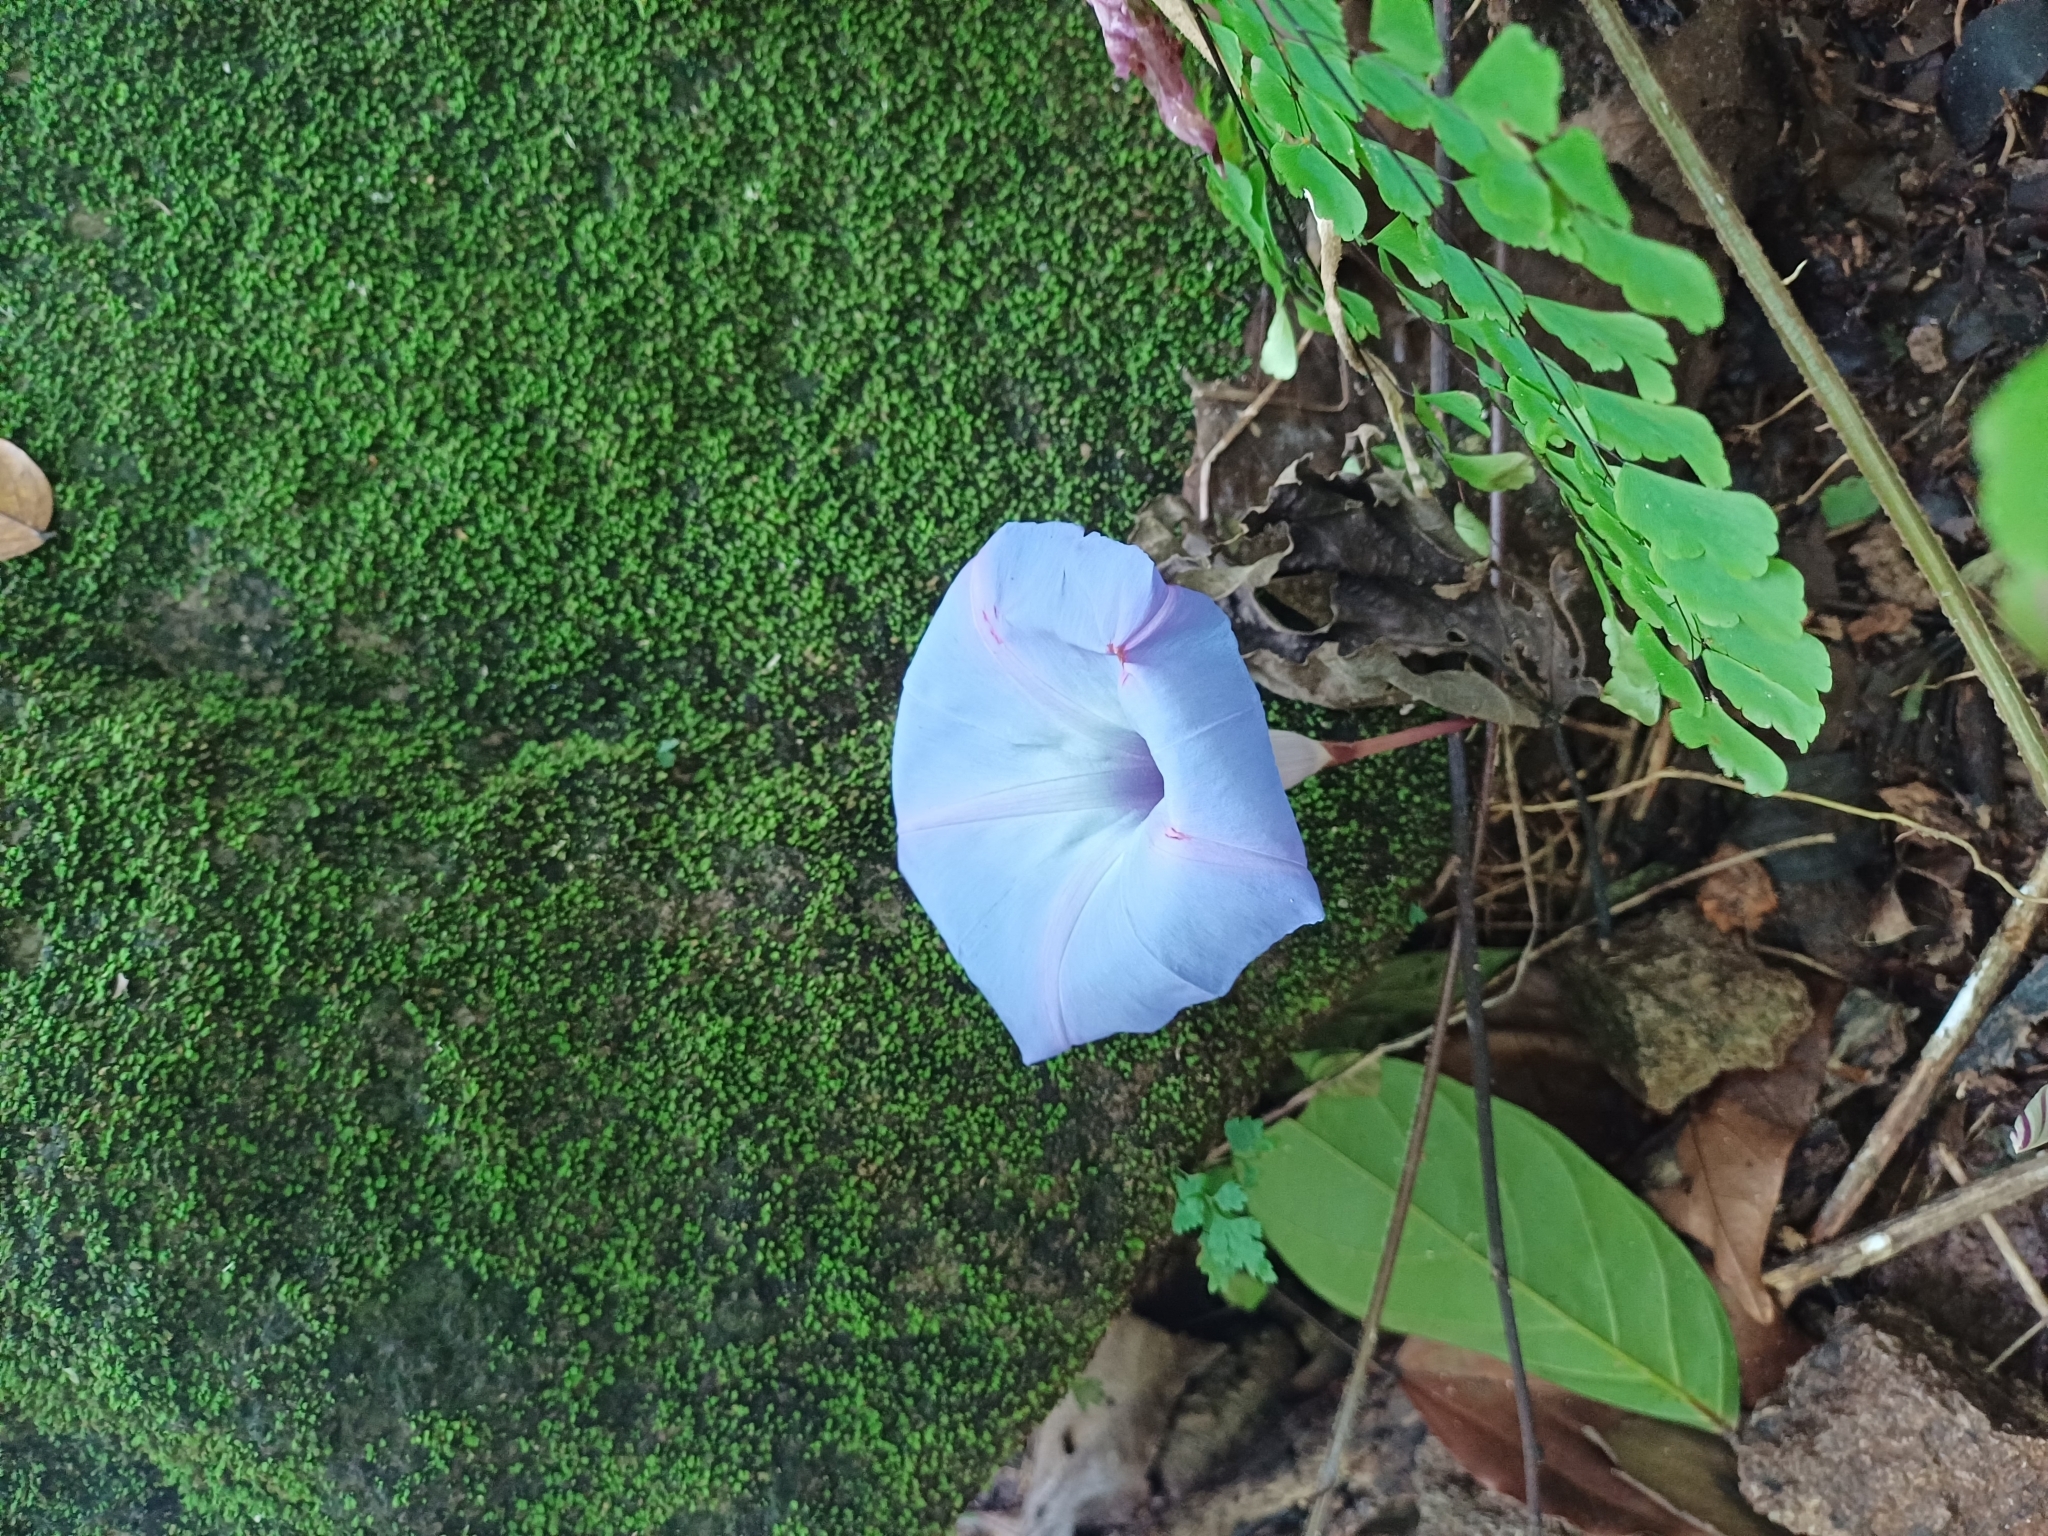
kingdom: Plantae
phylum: Tracheophyta
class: Magnoliopsida
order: Solanales
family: Convolvulaceae
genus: Ipomoea
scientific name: Ipomoea regnellii
